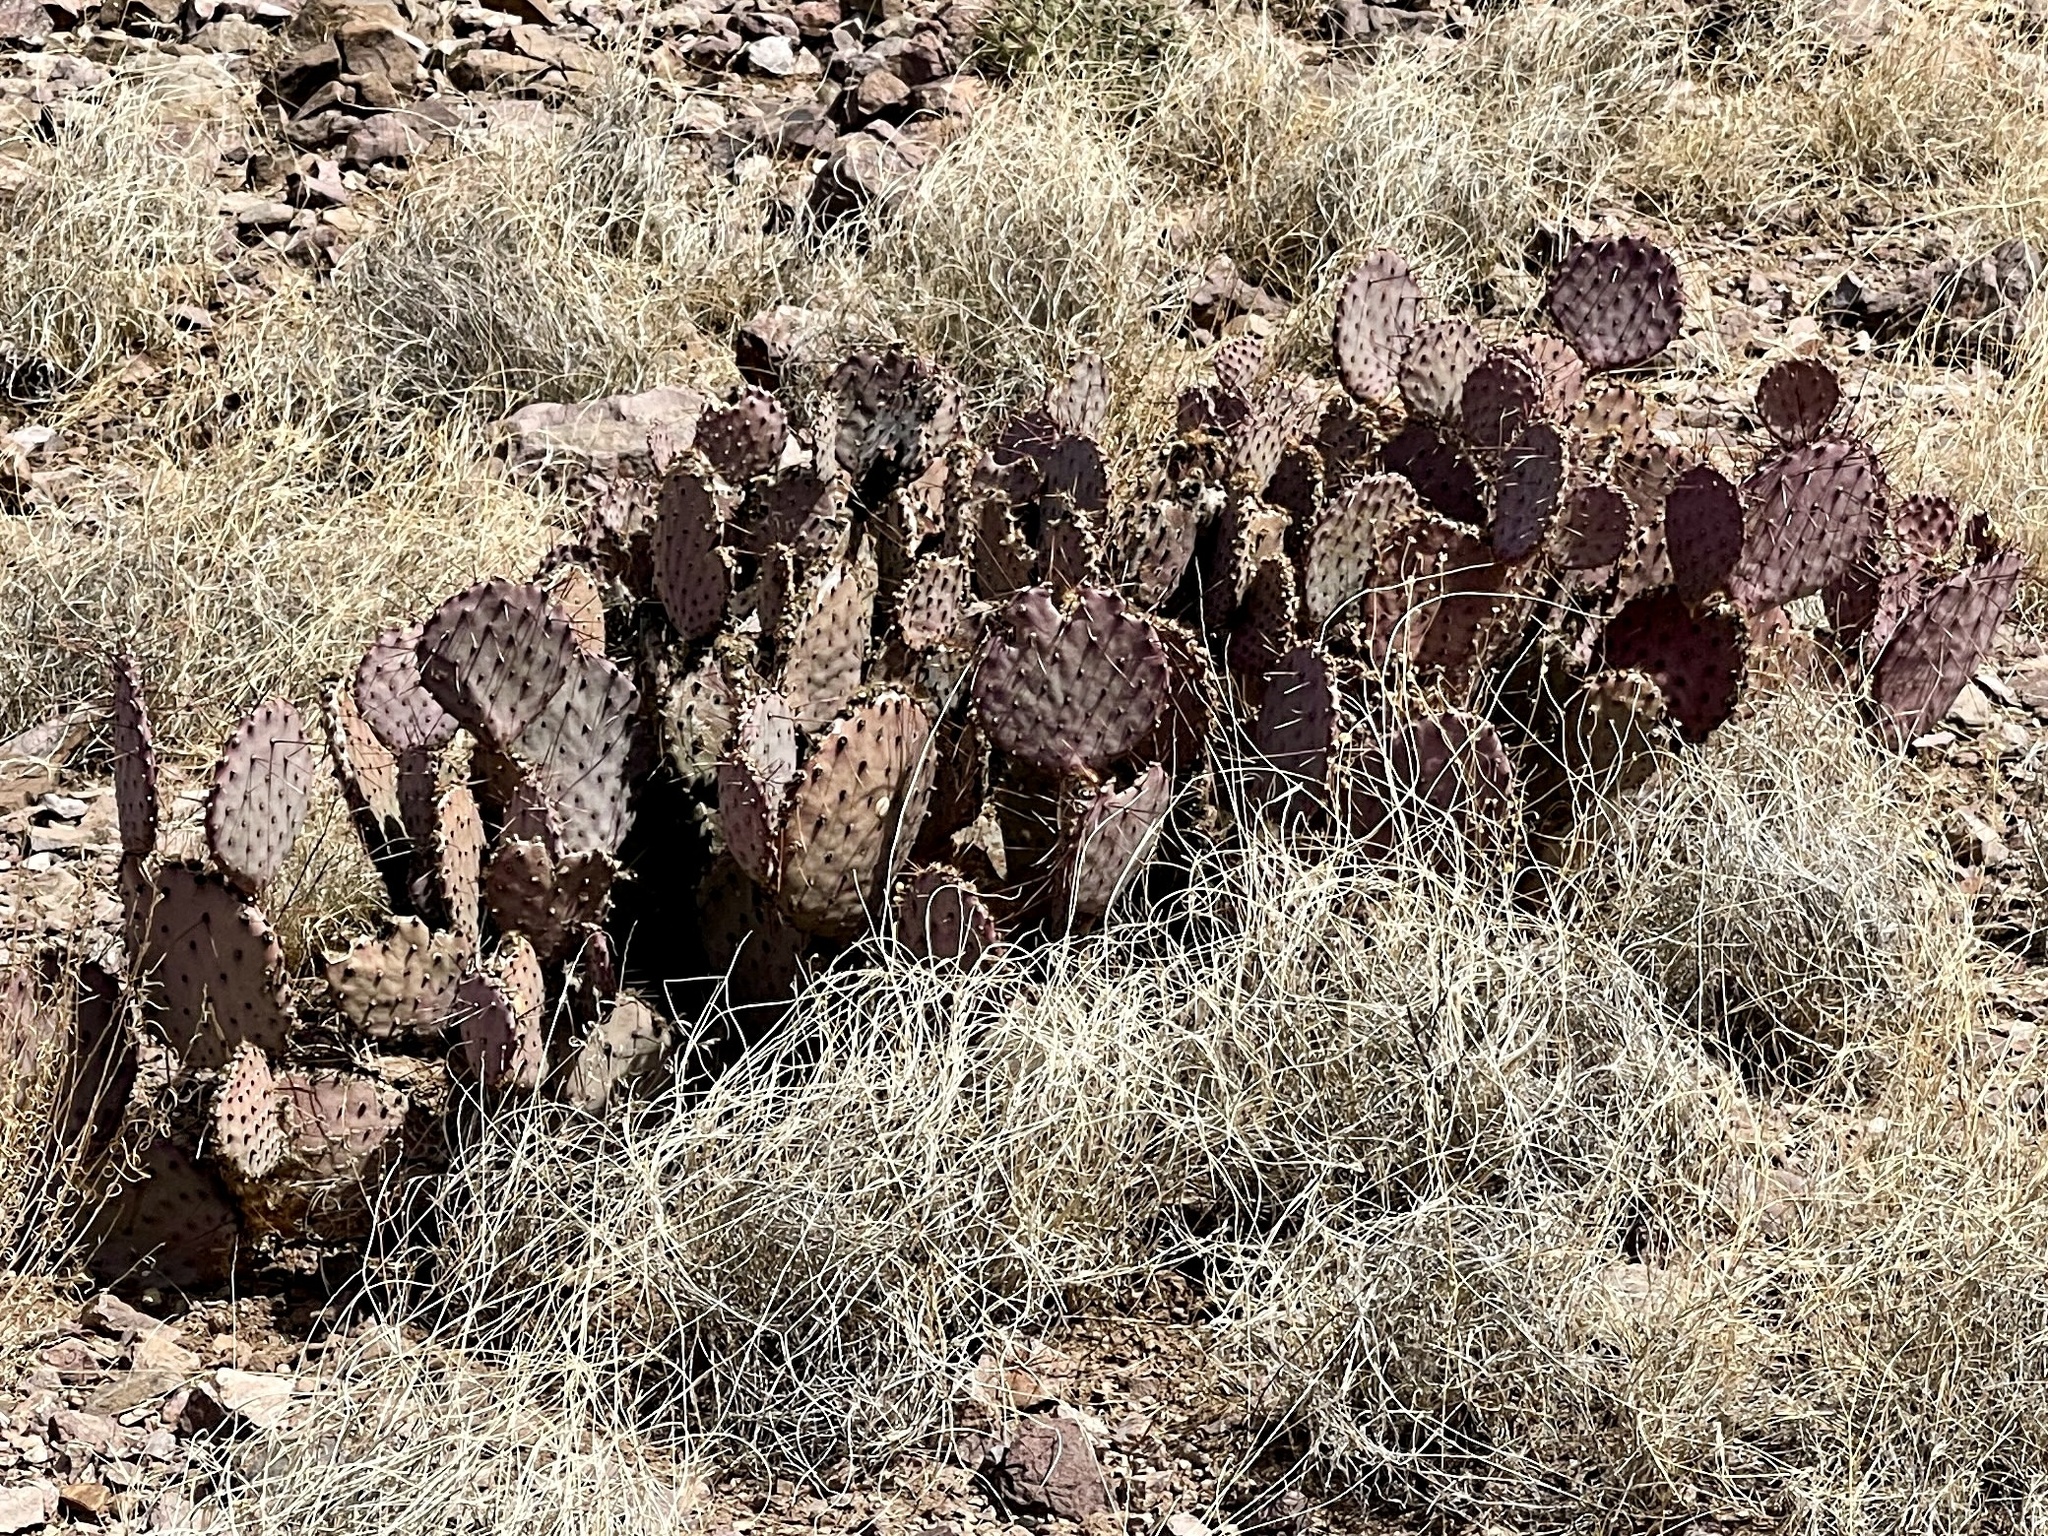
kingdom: Plantae
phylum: Tracheophyta
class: Magnoliopsida
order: Caryophyllales
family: Cactaceae
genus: Opuntia
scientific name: Opuntia macrocentra
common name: Purple prickly-pear
